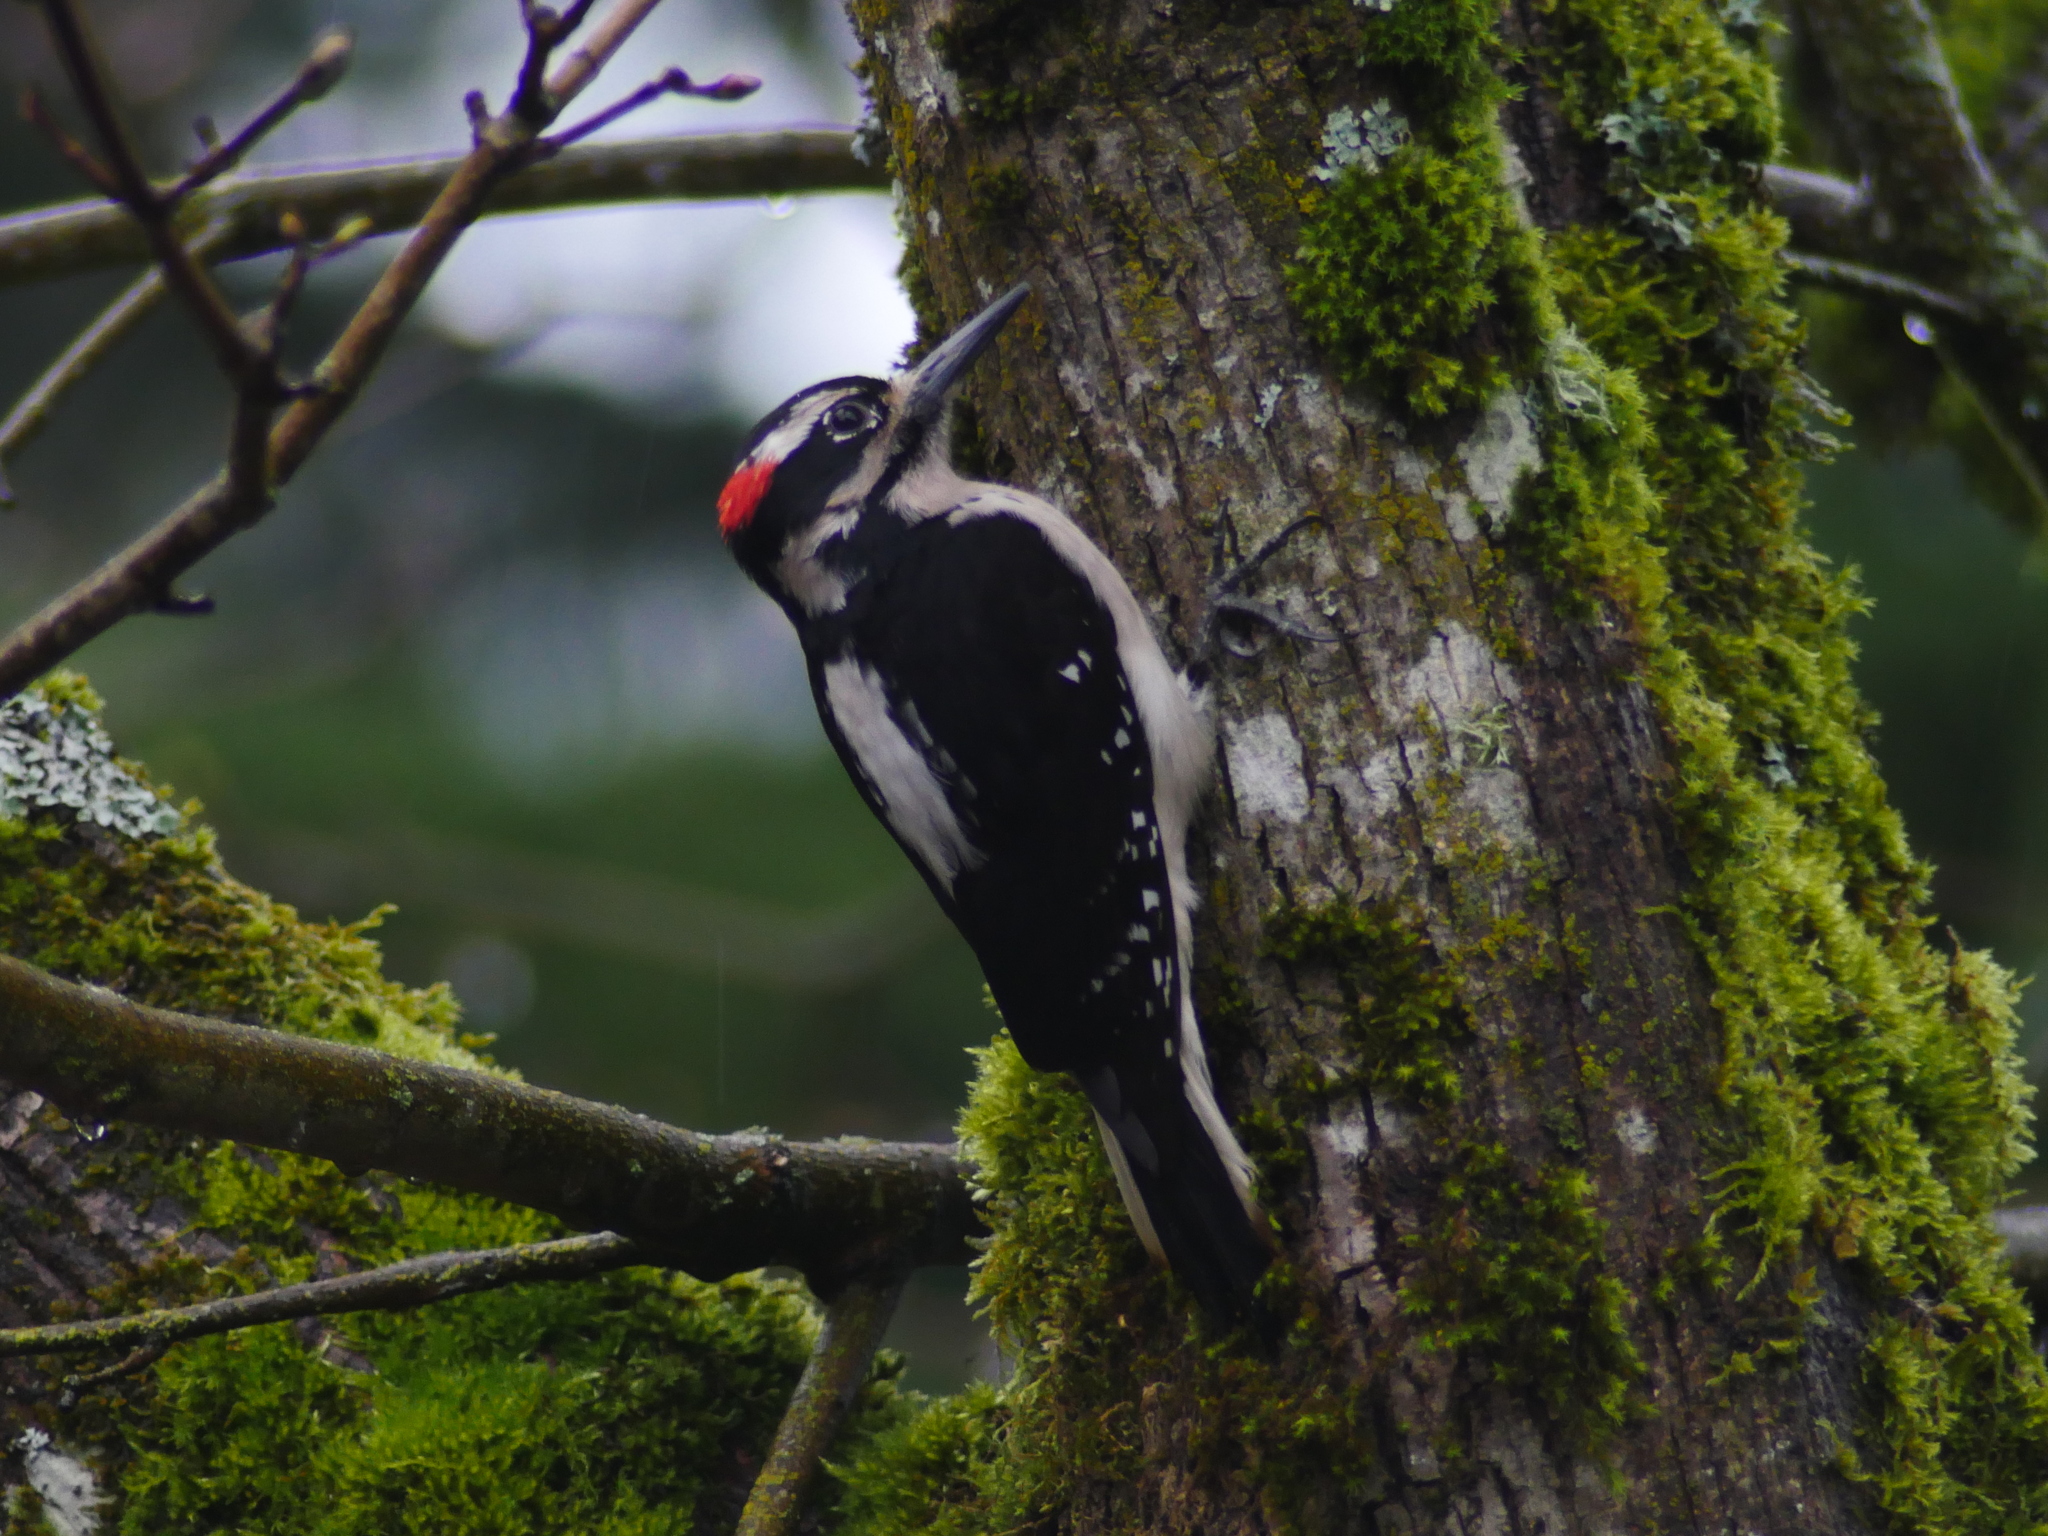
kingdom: Animalia
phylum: Chordata
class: Aves
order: Piciformes
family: Picidae
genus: Leuconotopicus
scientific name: Leuconotopicus villosus
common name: Hairy woodpecker
